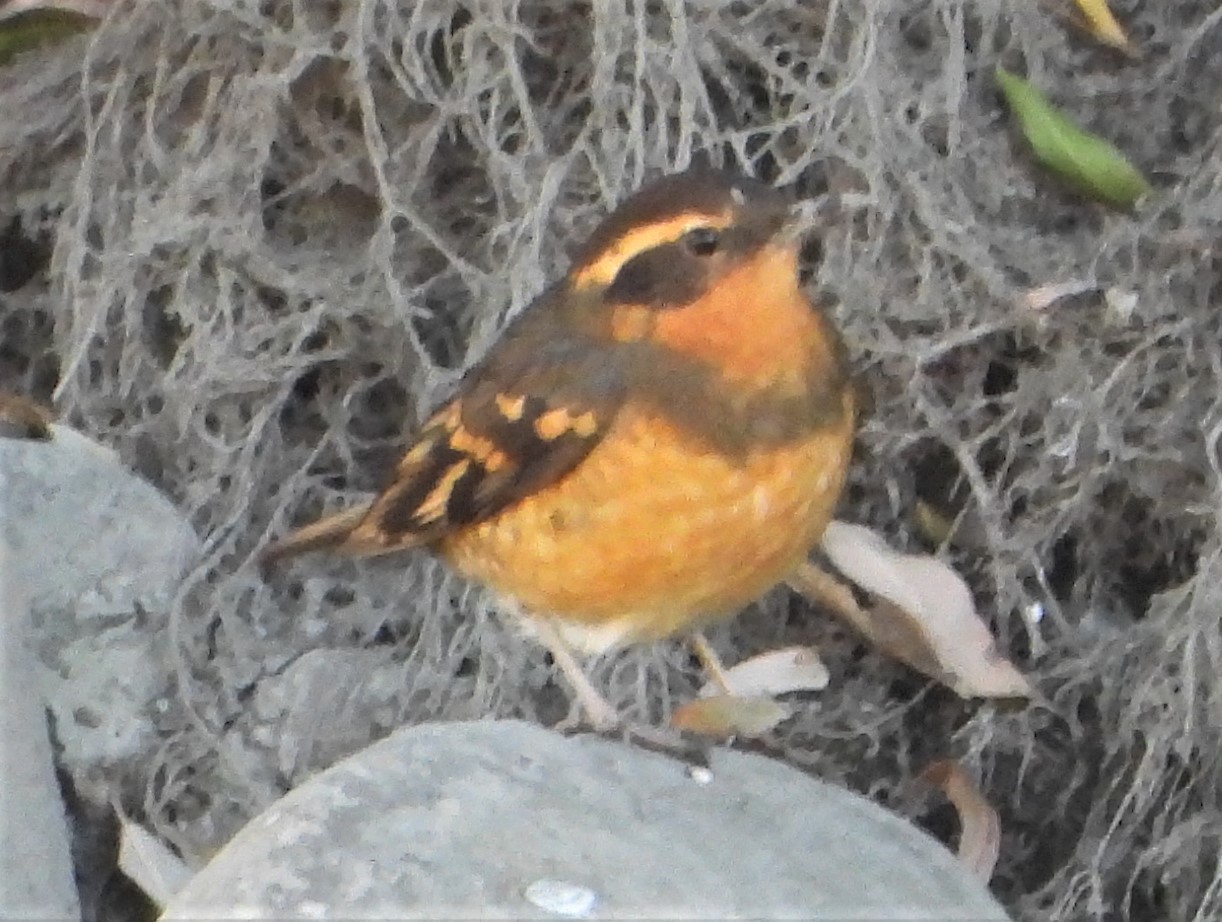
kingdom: Animalia
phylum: Chordata
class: Aves
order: Passeriformes
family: Turdidae
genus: Ixoreus
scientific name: Ixoreus naevius
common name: Varied thrush
